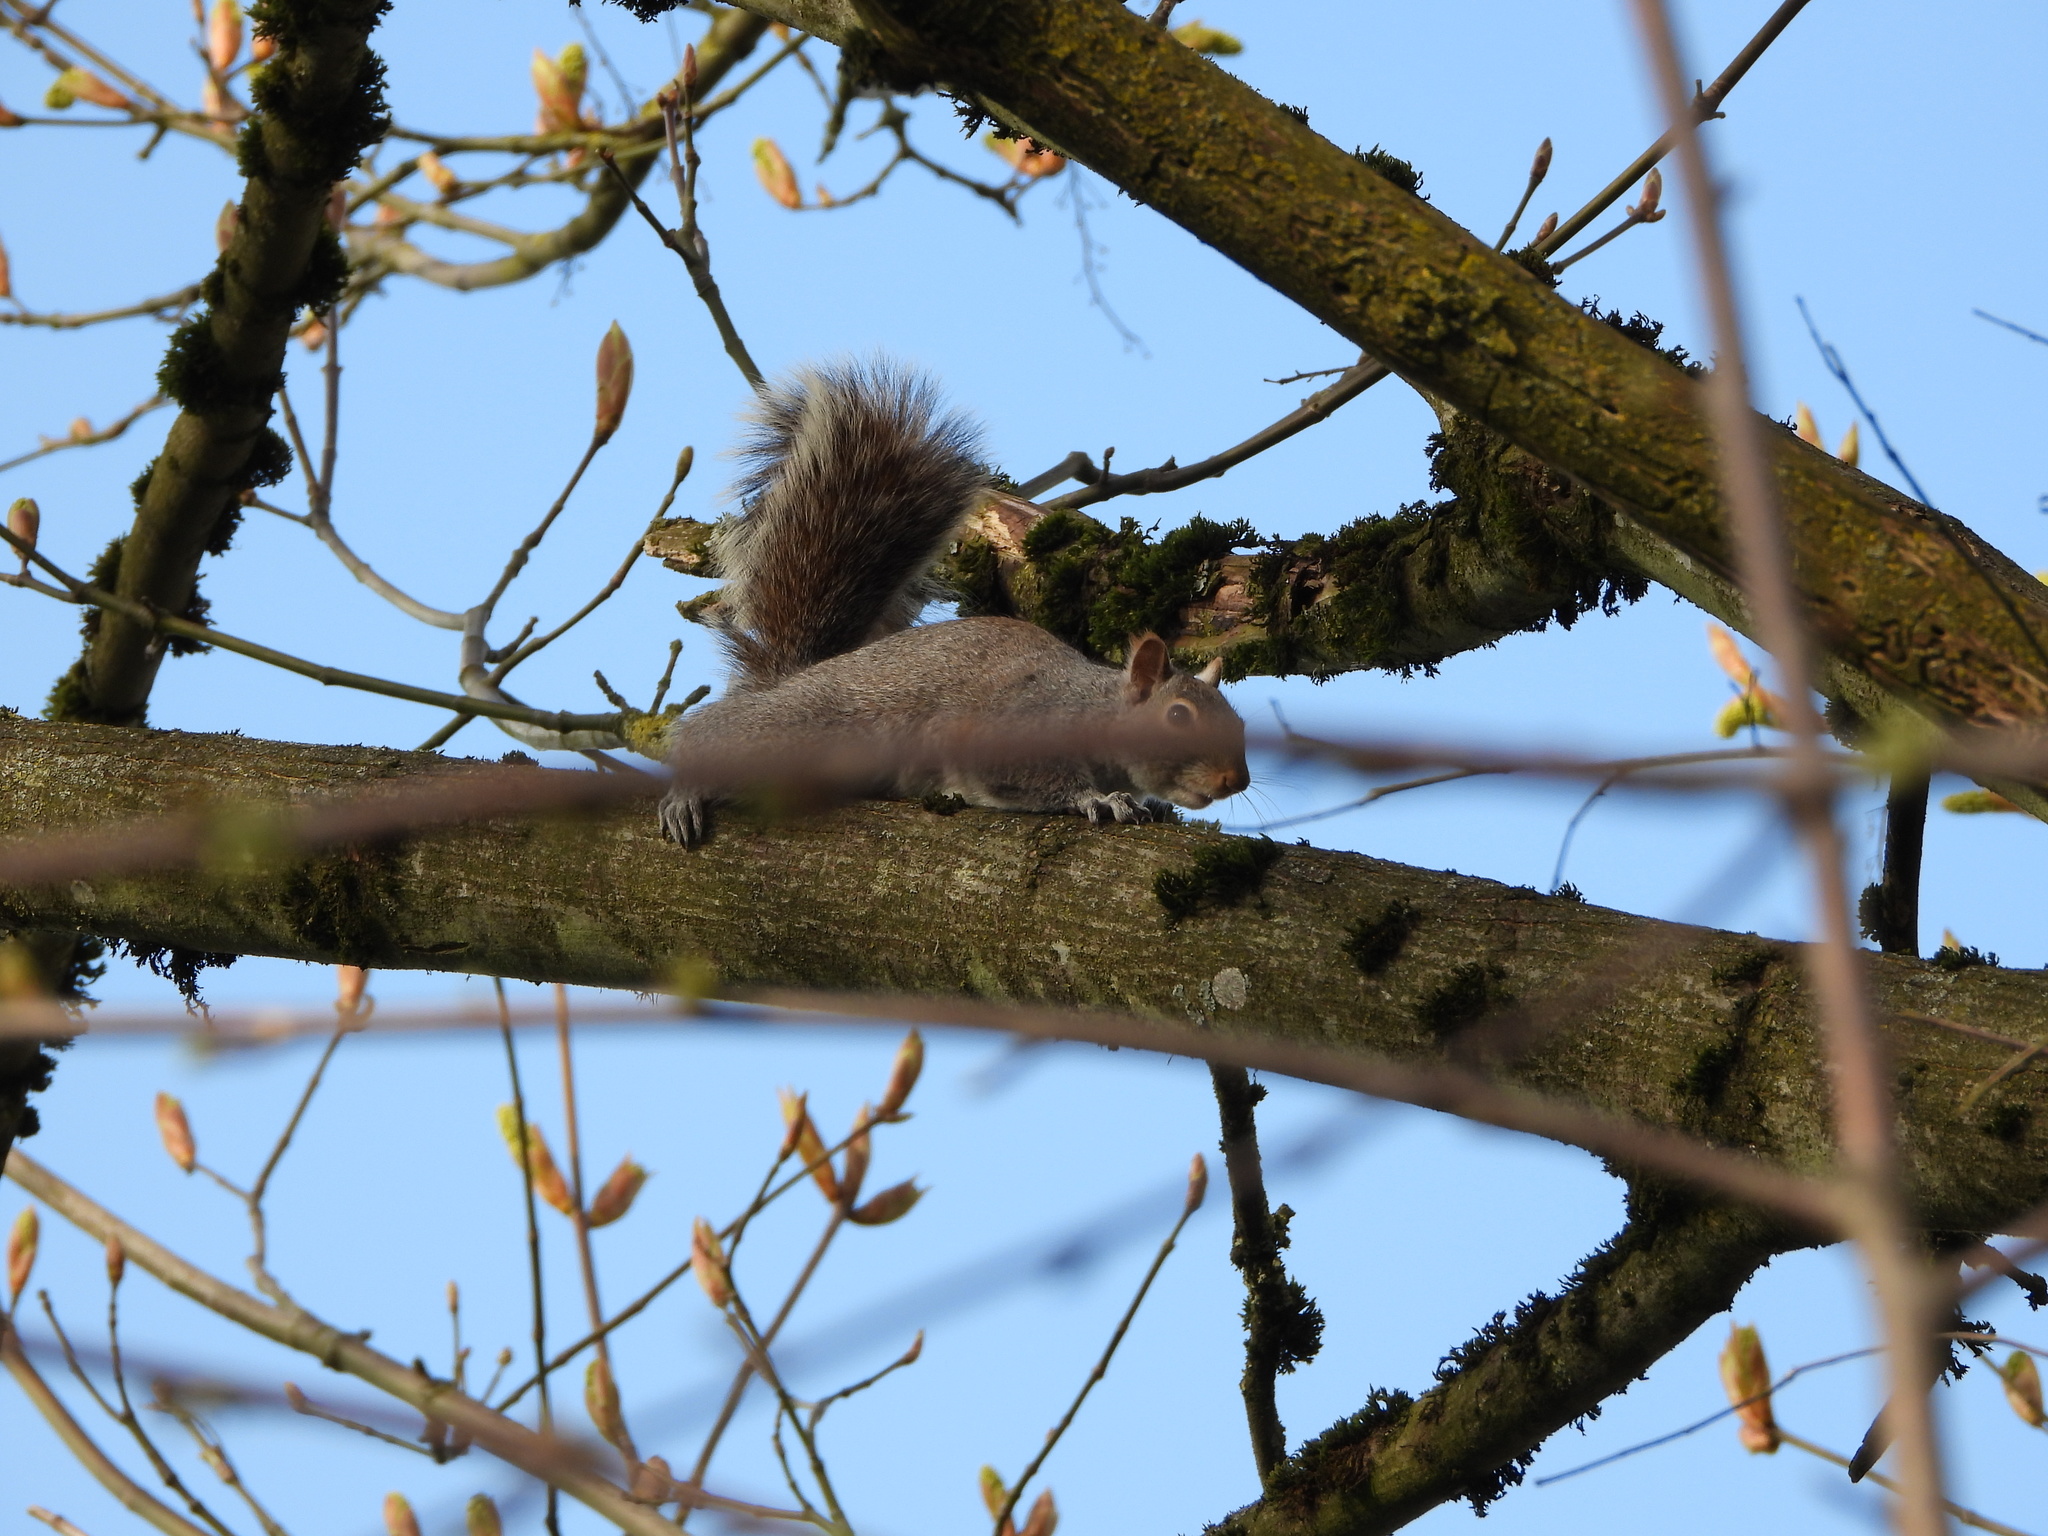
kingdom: Animalia
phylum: Chordata
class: Mammalia
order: Rodentia
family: Sciuridae
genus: Sciurus
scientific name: Sciurus carolinensis
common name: Eastern gray squirrel
